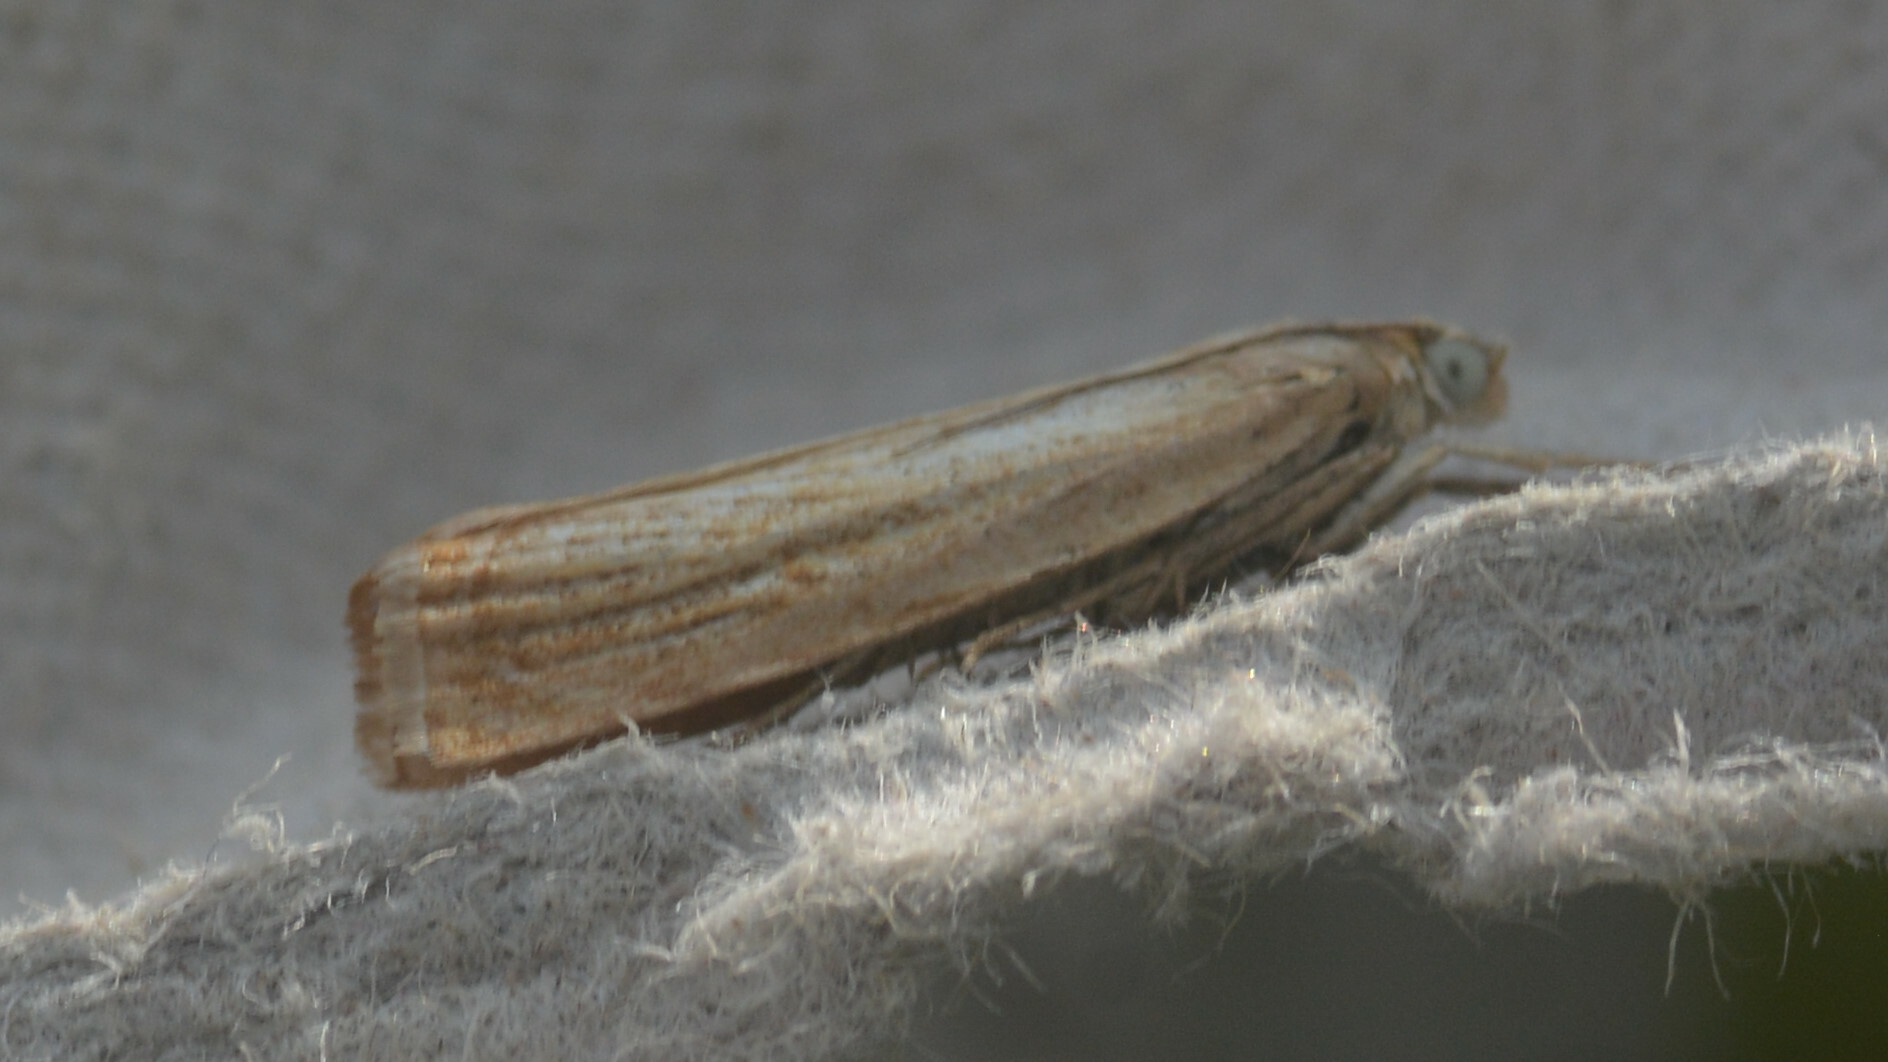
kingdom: Animalia
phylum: Arthropoda
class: Insecta
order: Lepidoptera
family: Crambidae
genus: Chrysoteuchia
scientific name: Chrysoteuchia culmella
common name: Garden grass-veneer
